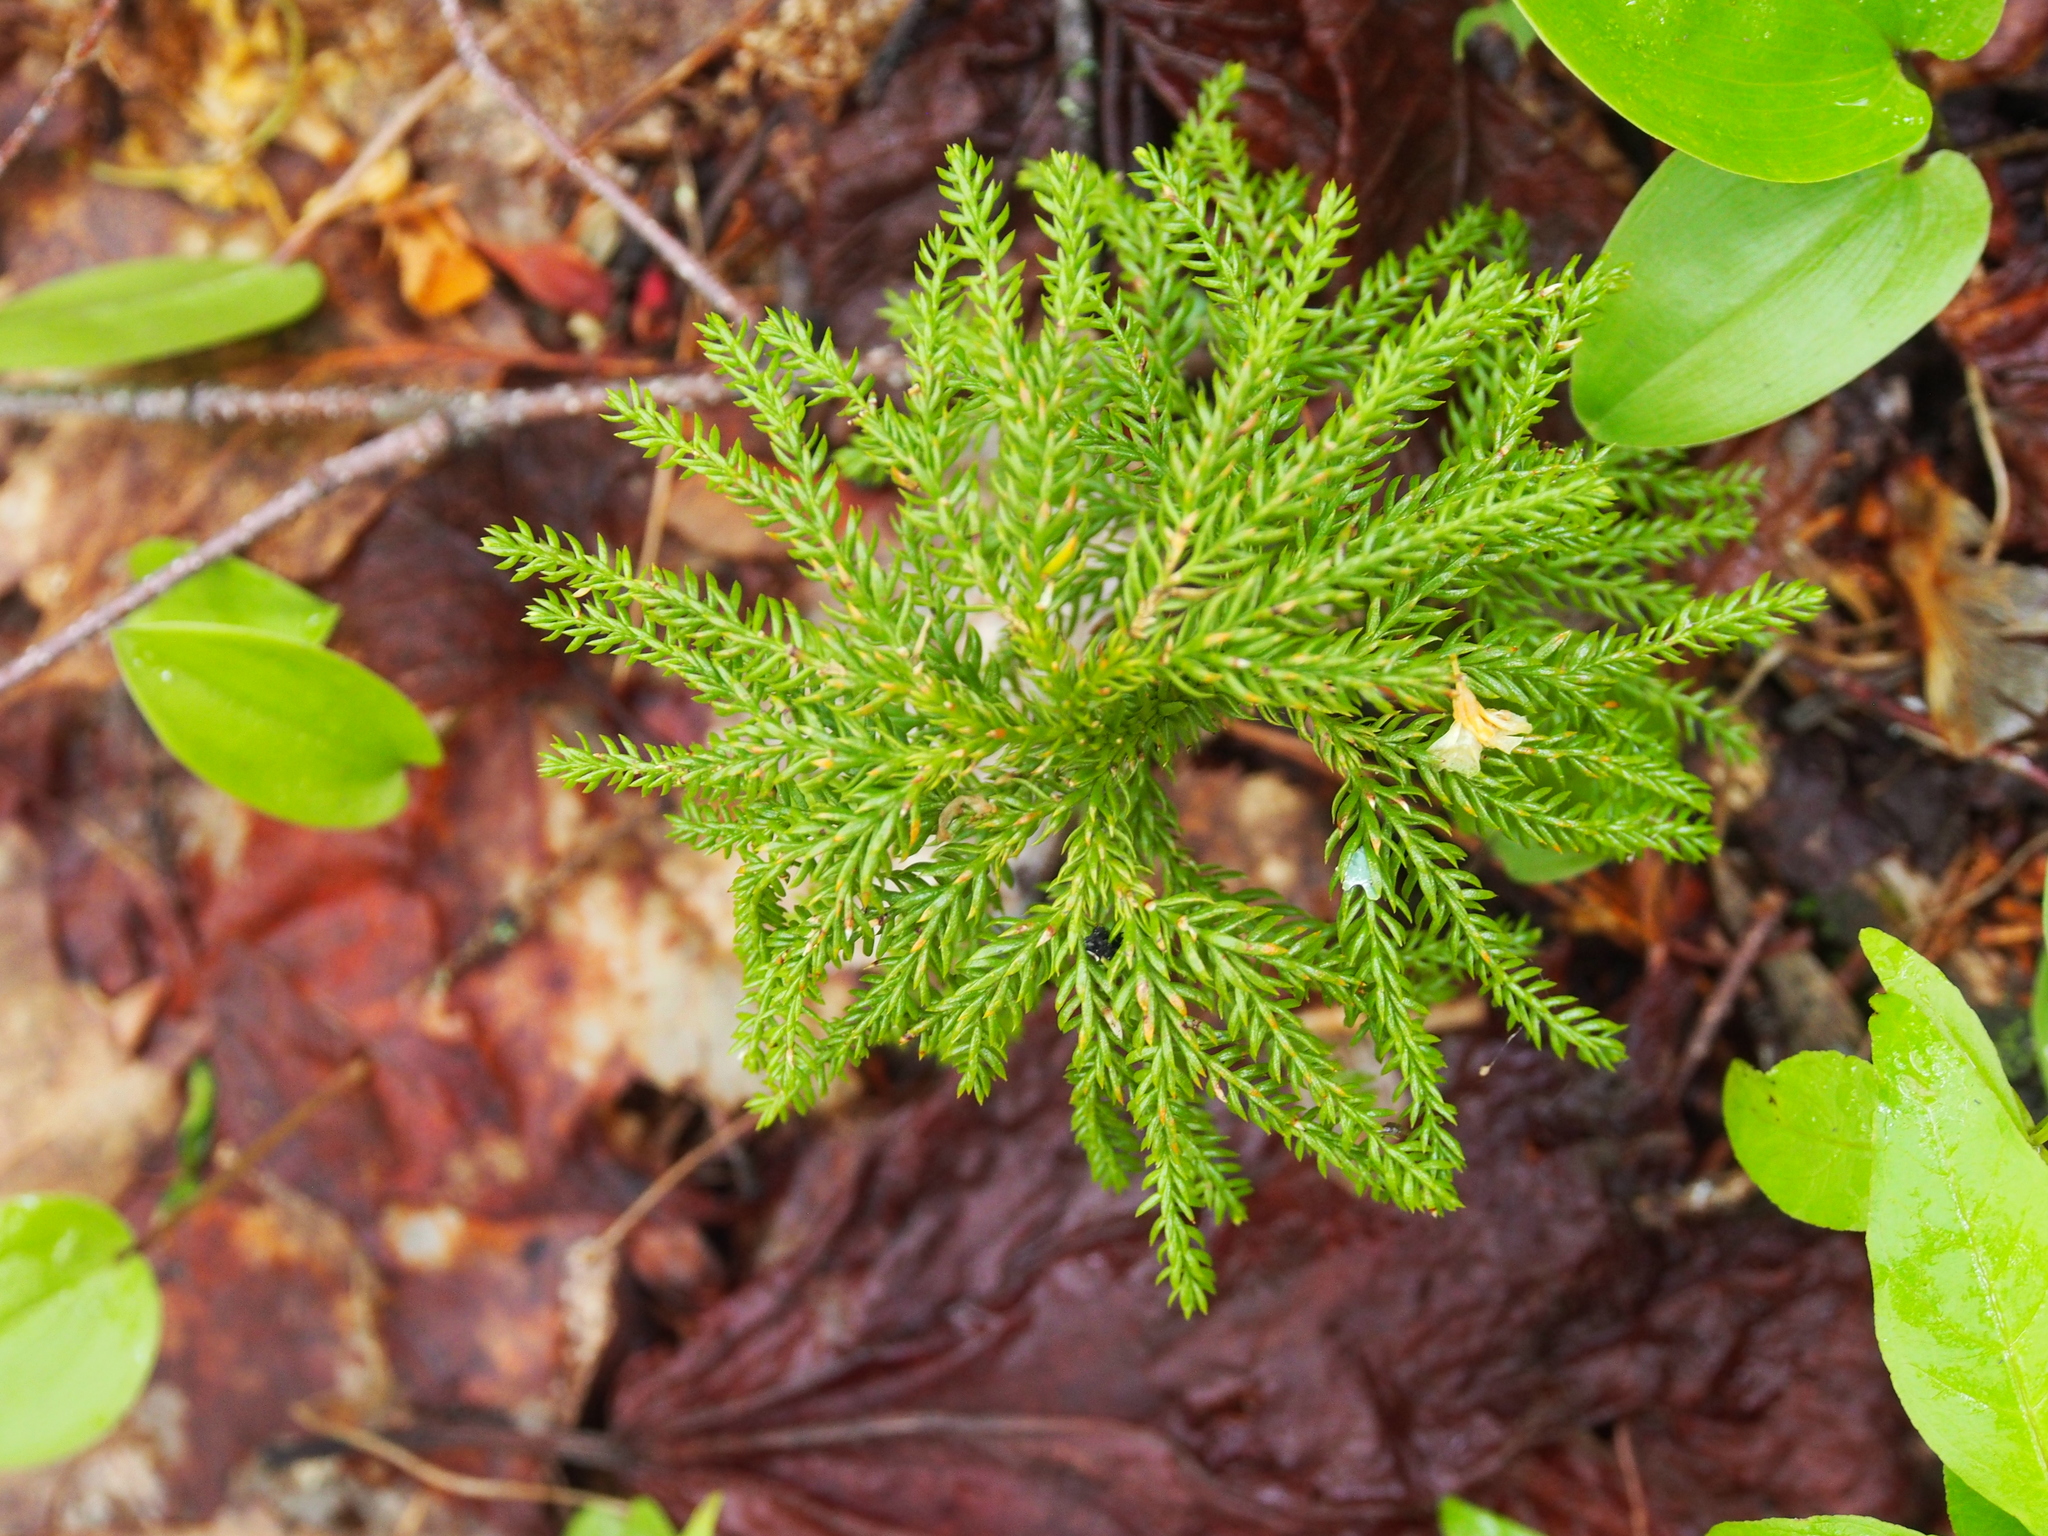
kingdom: Plantae
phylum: Tracheophyta
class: Lycopodiopsida
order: Lycopodiales
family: Lycopodiaceae
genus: Dendrolycopodium
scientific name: Dendrolycopodium dendroideum
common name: Northern tree-clubmoss
